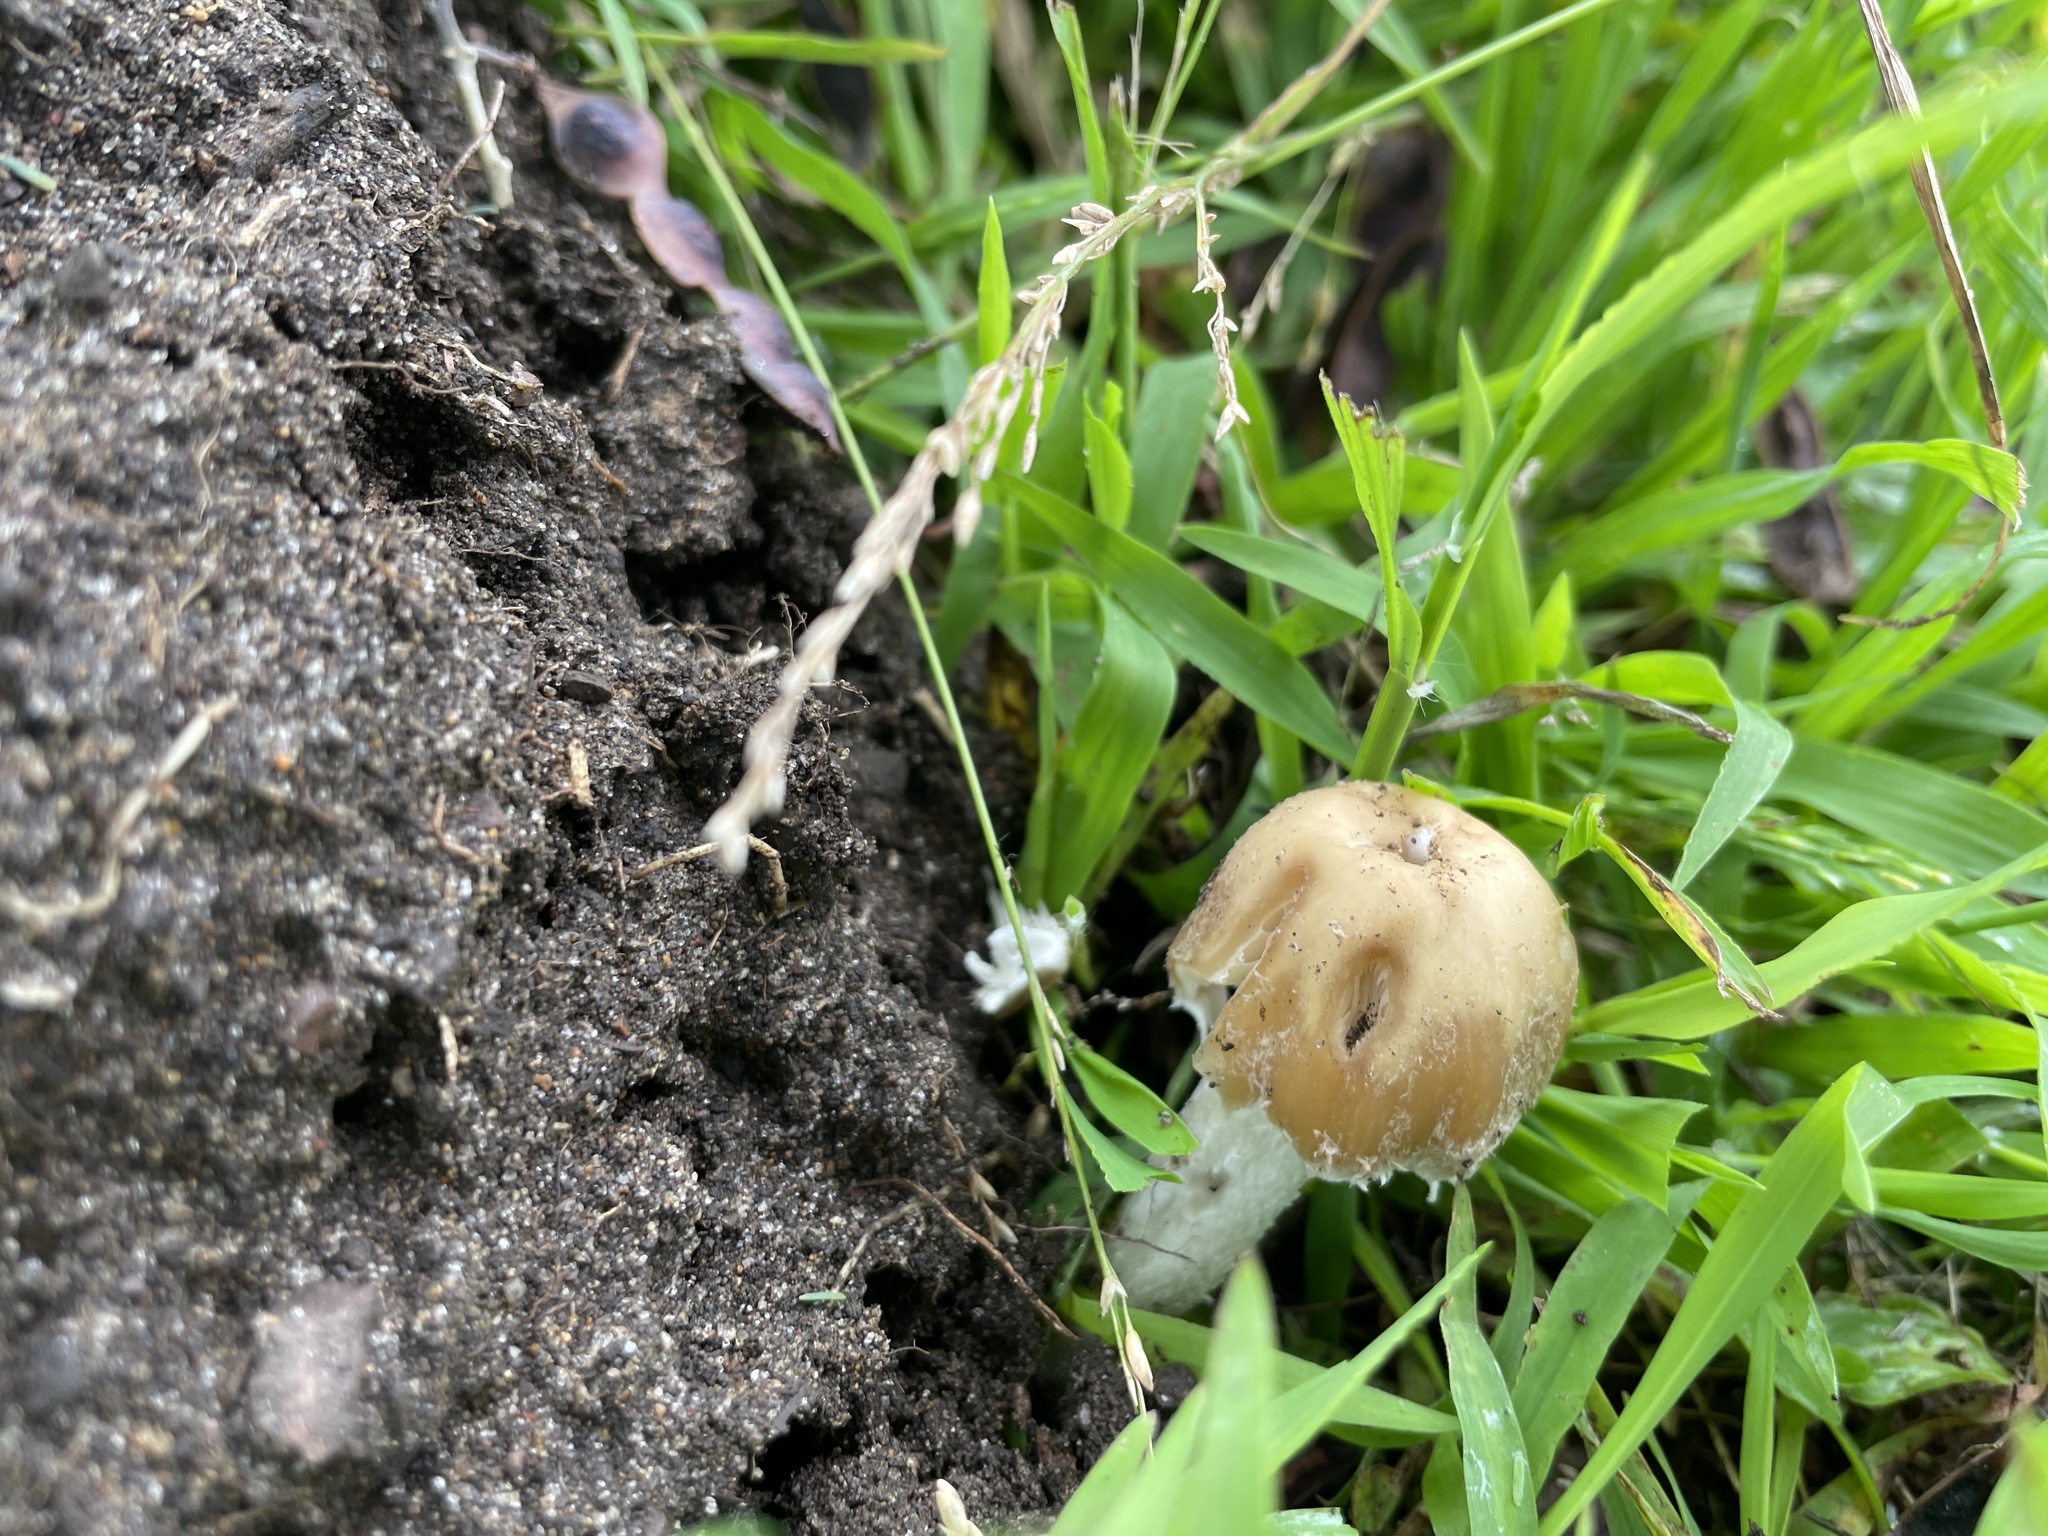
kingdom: Fungi
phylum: Basidiomycota
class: Agaricomycetes
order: Agaricales
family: Psathyrellaceae
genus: Candolleomyces
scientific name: Candolleomyces candolleanus
